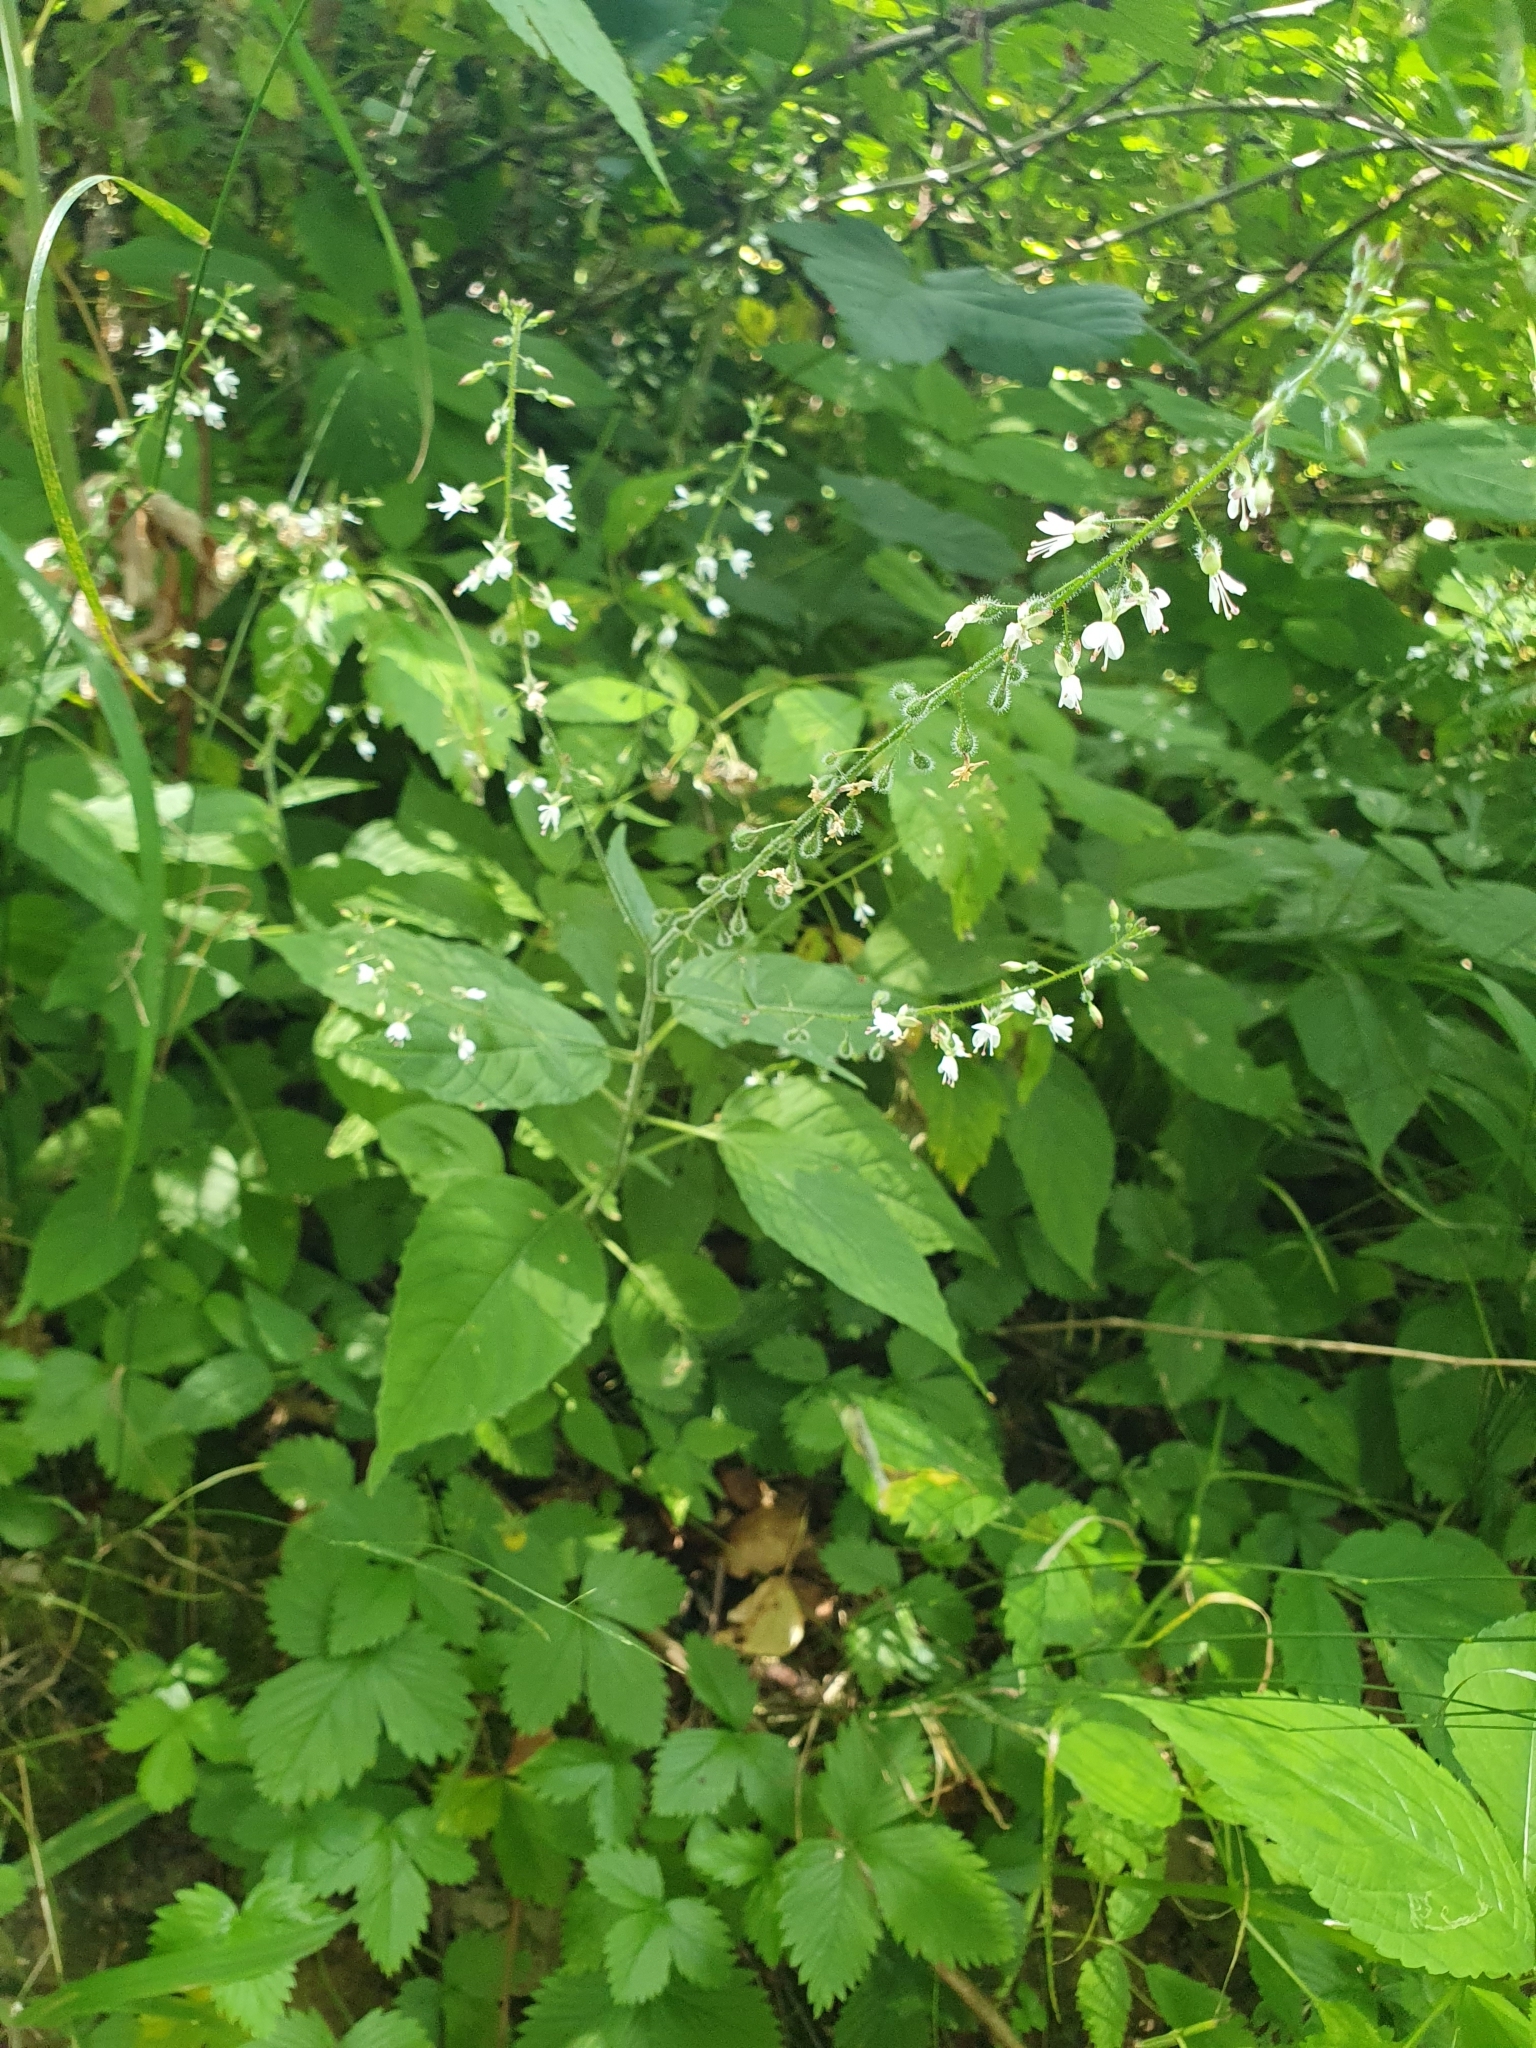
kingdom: Plantae
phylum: Tracheophyta
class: Magnoliopsida
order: Myrtales
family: Onagraceae
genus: Circaea
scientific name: Circaea lutetiana
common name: Enchanter's-nightshade
